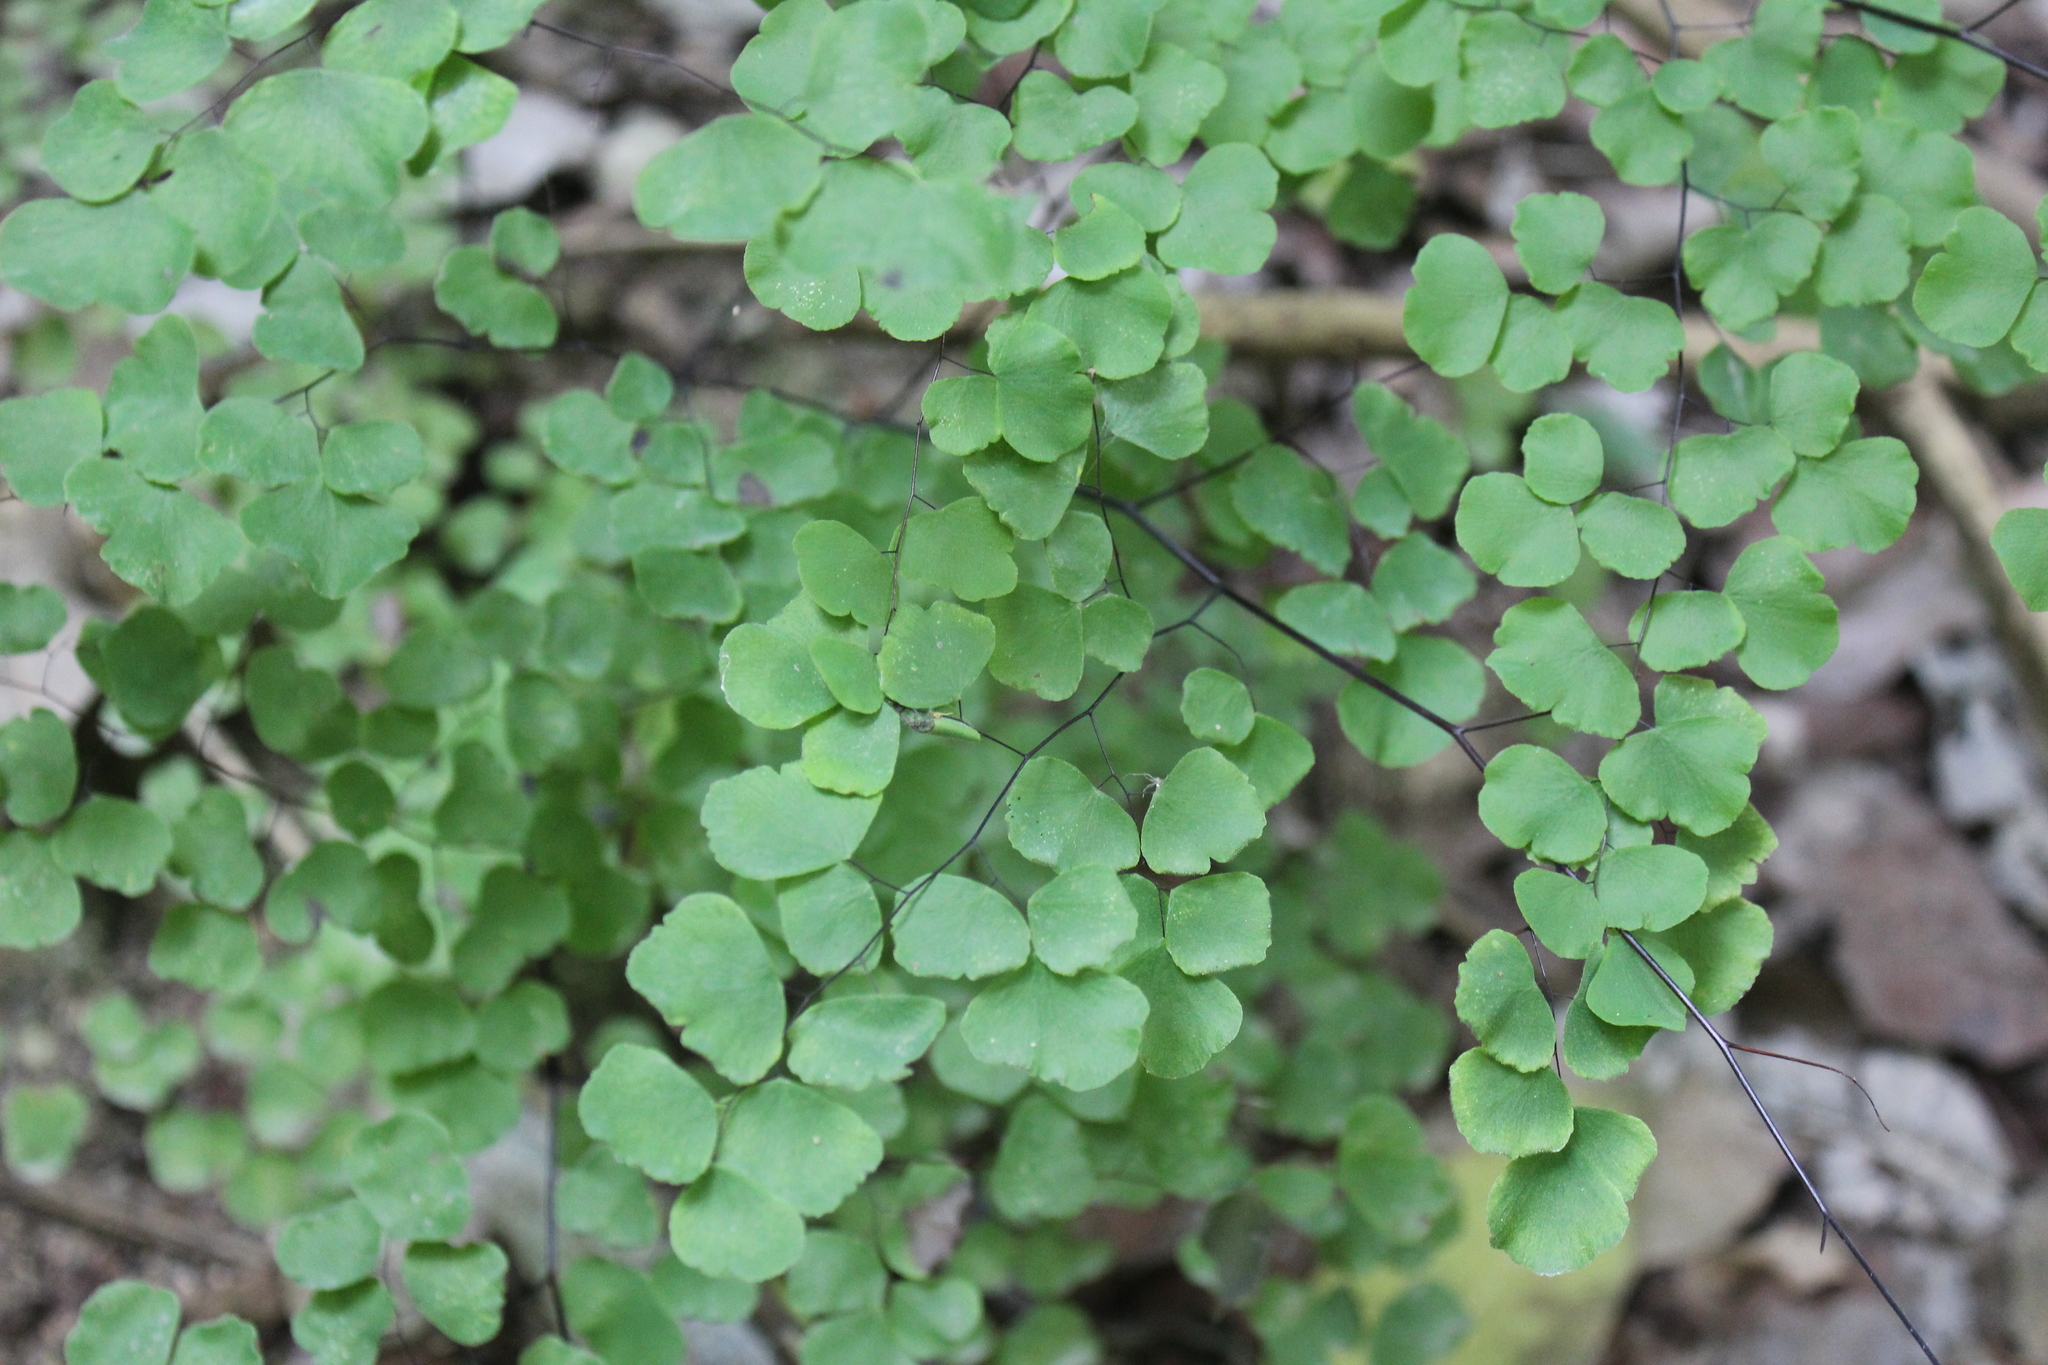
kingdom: Plantae
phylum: Tracheophyta
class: Polypodiopsida
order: Polypodiales
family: Pteridaceae
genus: Adiantum
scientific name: Adiantum tricholepis
